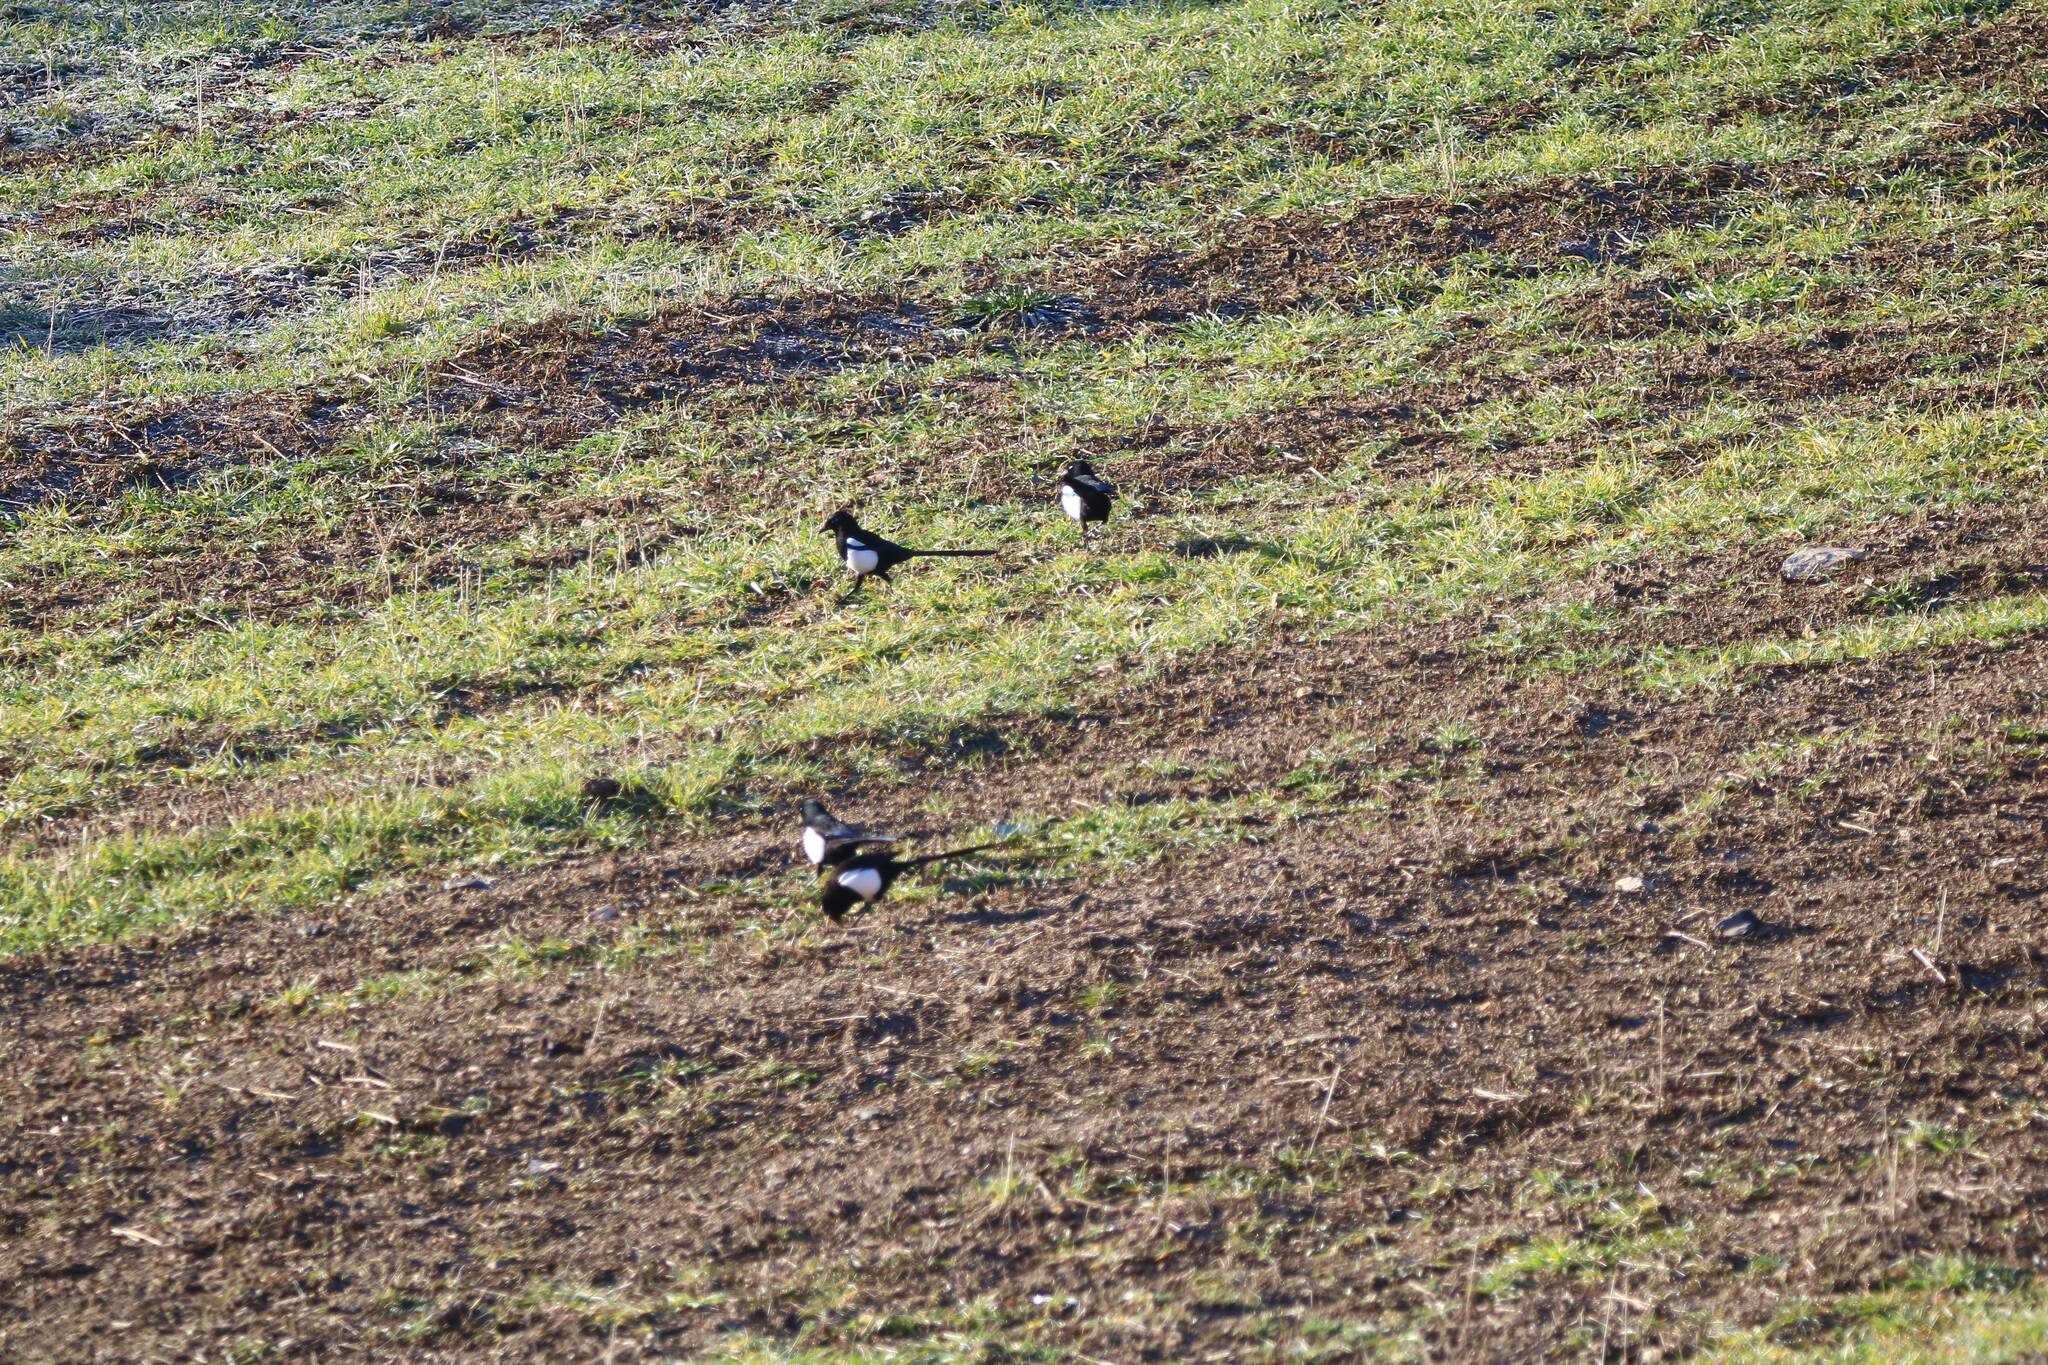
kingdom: Animalia
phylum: Chordata
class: Aves
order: Passeriformes
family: Corvidae
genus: Pica
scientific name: Pica mauritanica
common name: Maghreb magpie
